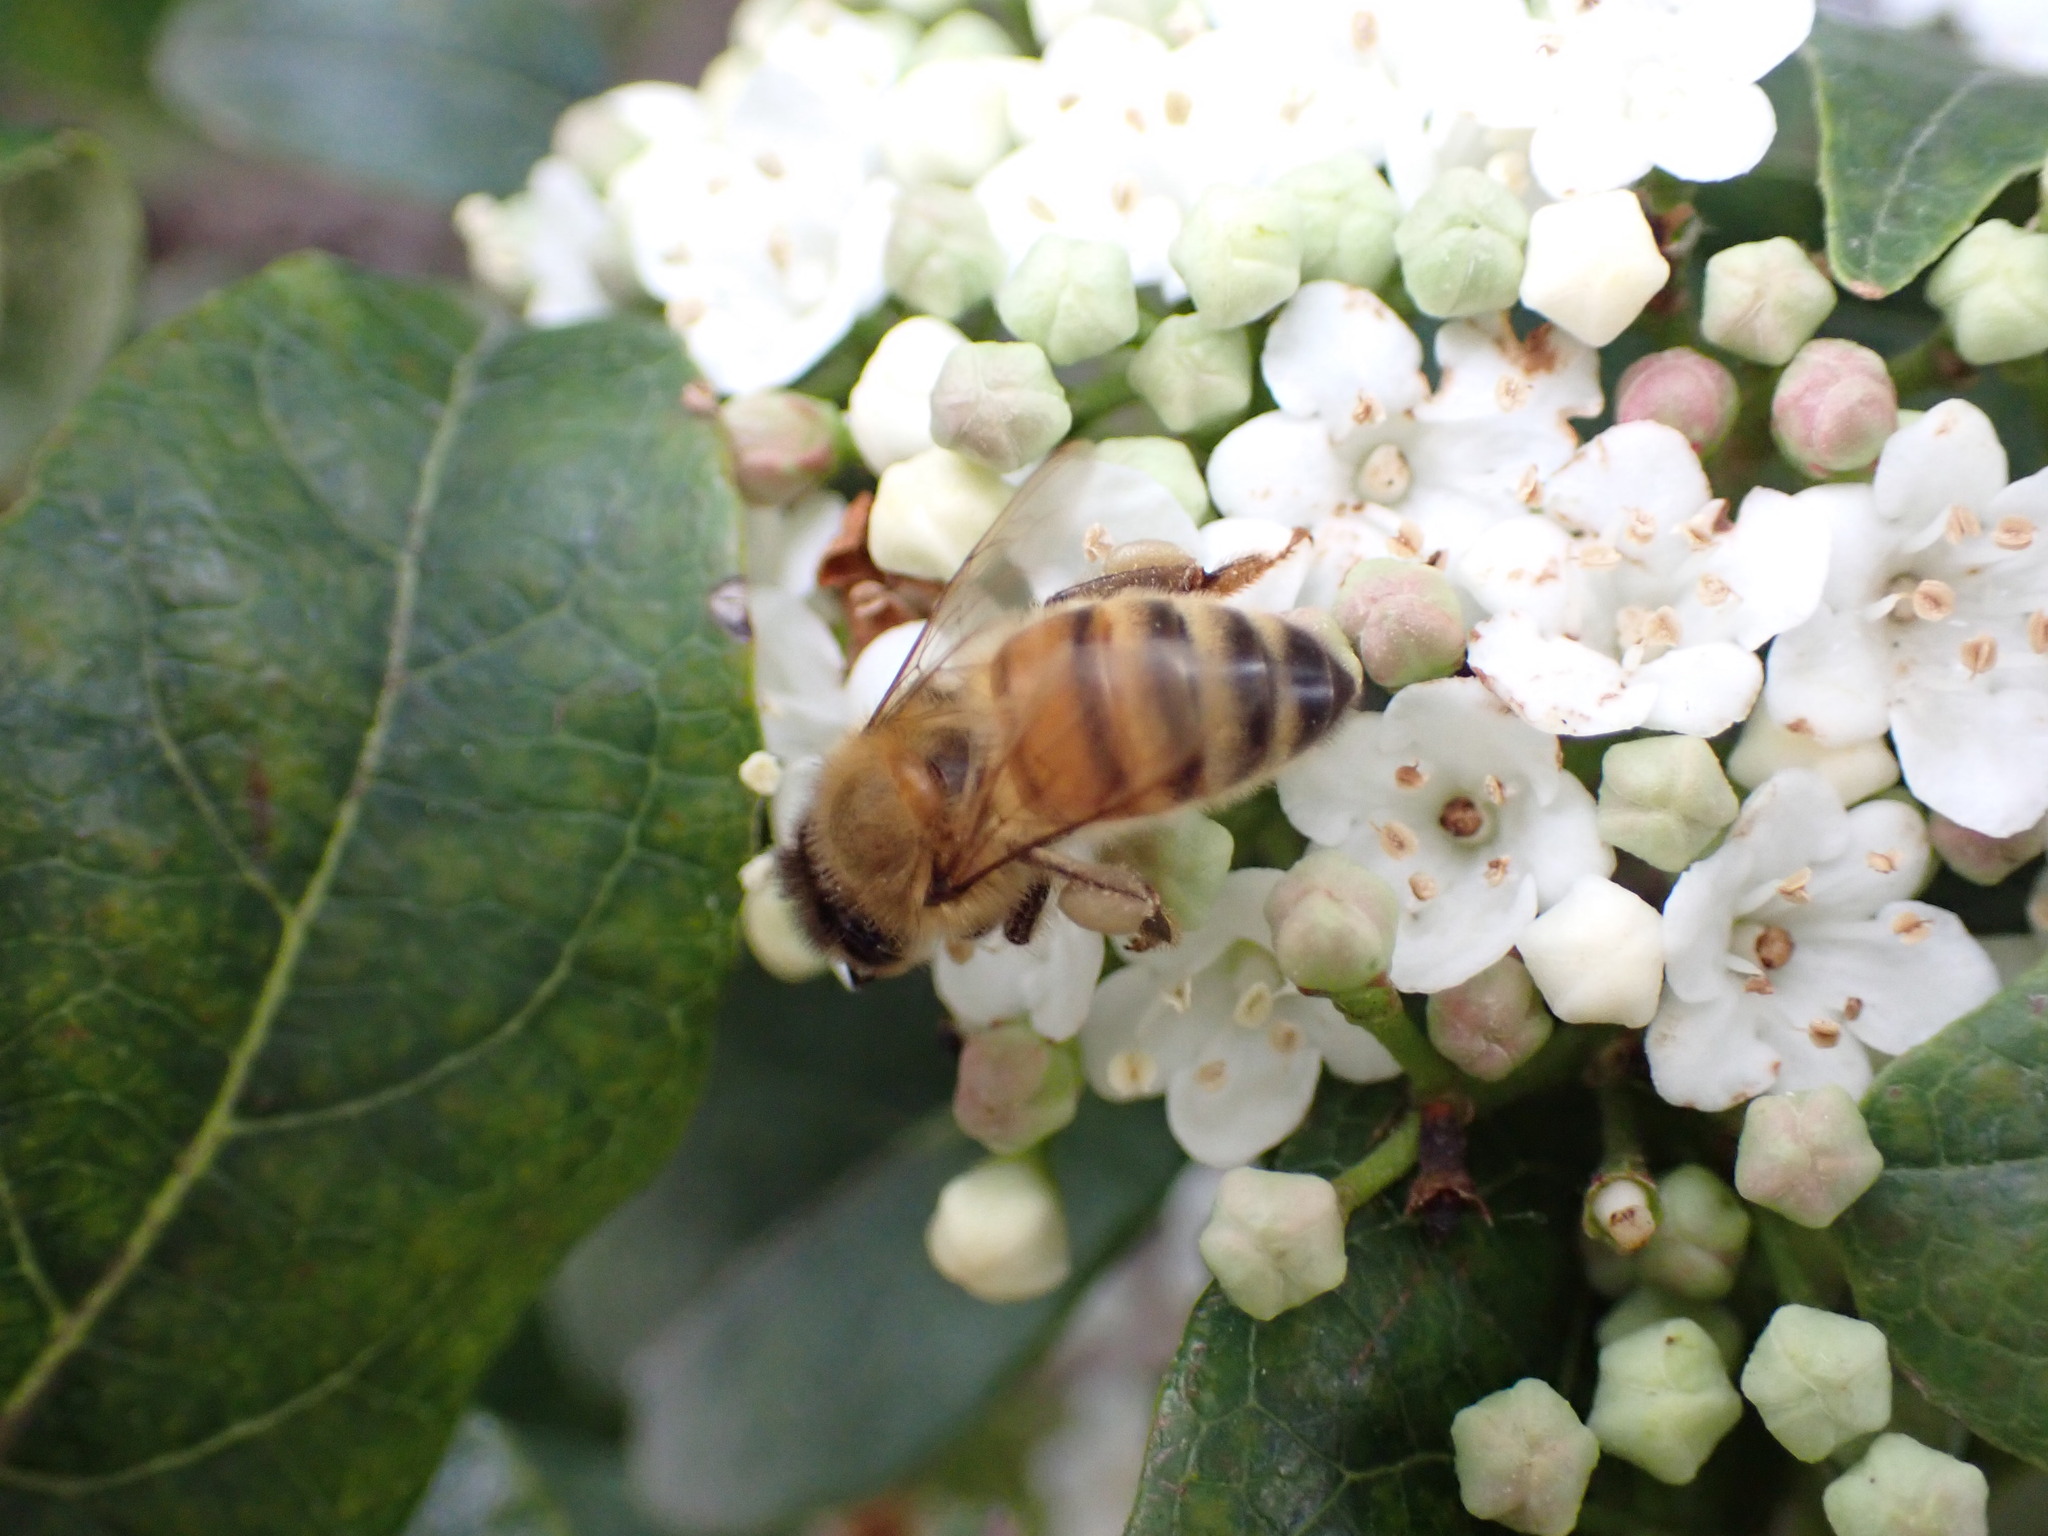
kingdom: Animalia
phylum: Arthropoda
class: Insecta
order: Hymenoptera
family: Apidae
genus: Apis
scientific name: Apis mellifera
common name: Honey bee
